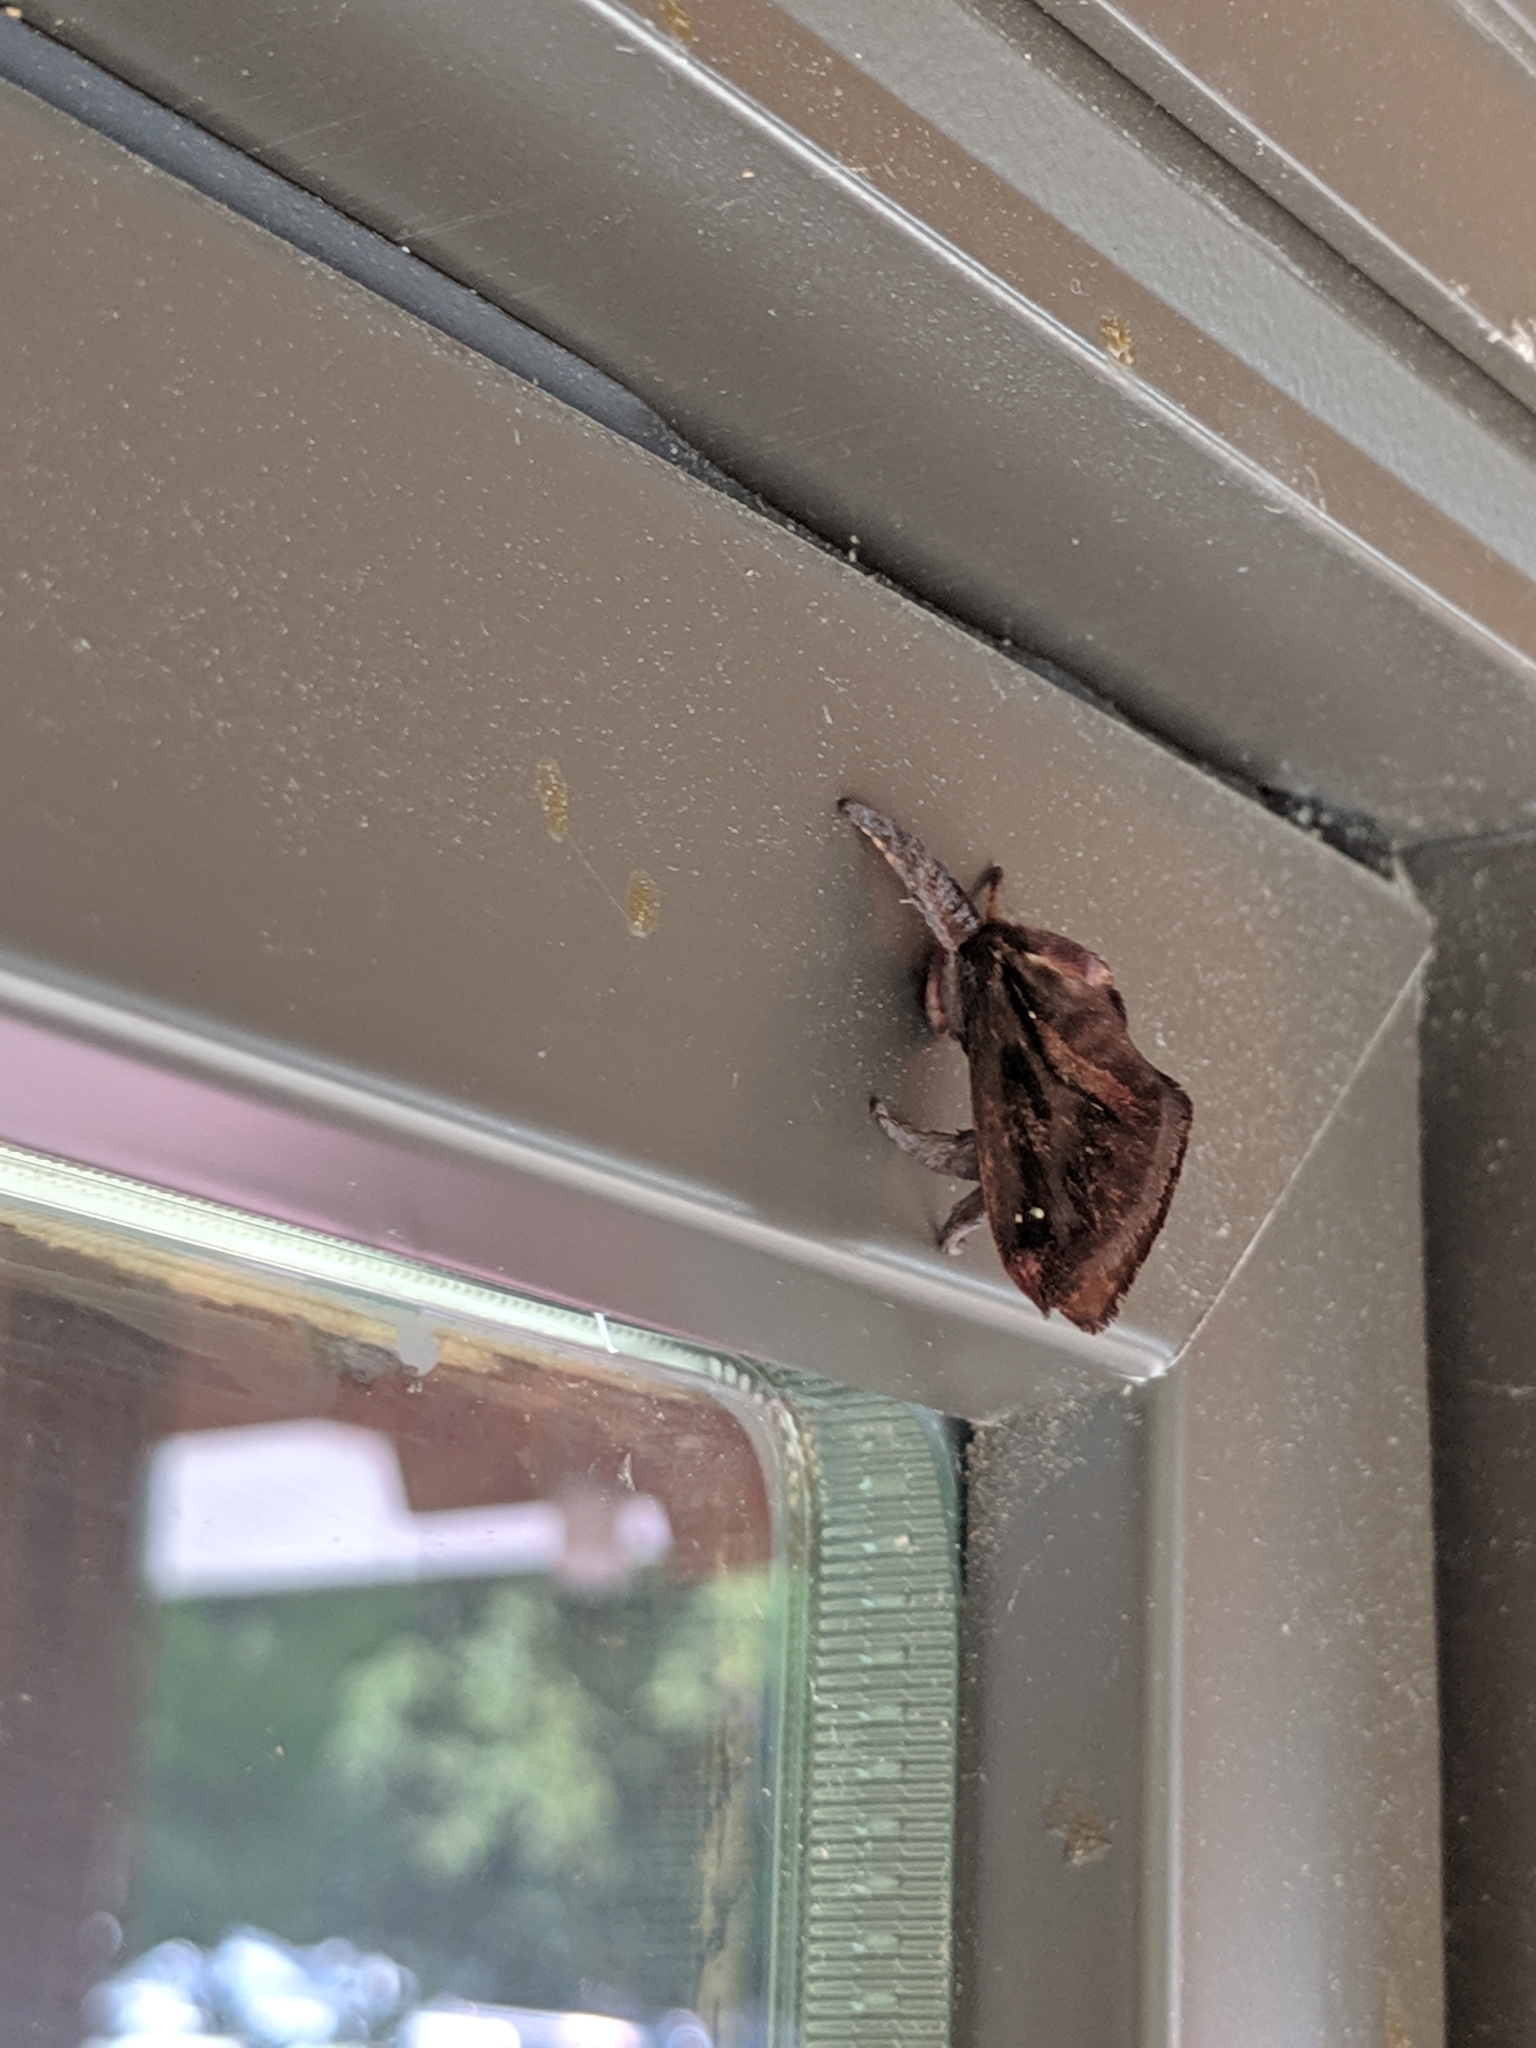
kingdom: Animalia
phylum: Arthropoda
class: Insecta
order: Lepidoptera
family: Limacodidae
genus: Acharia
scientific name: Acharia stimulea
